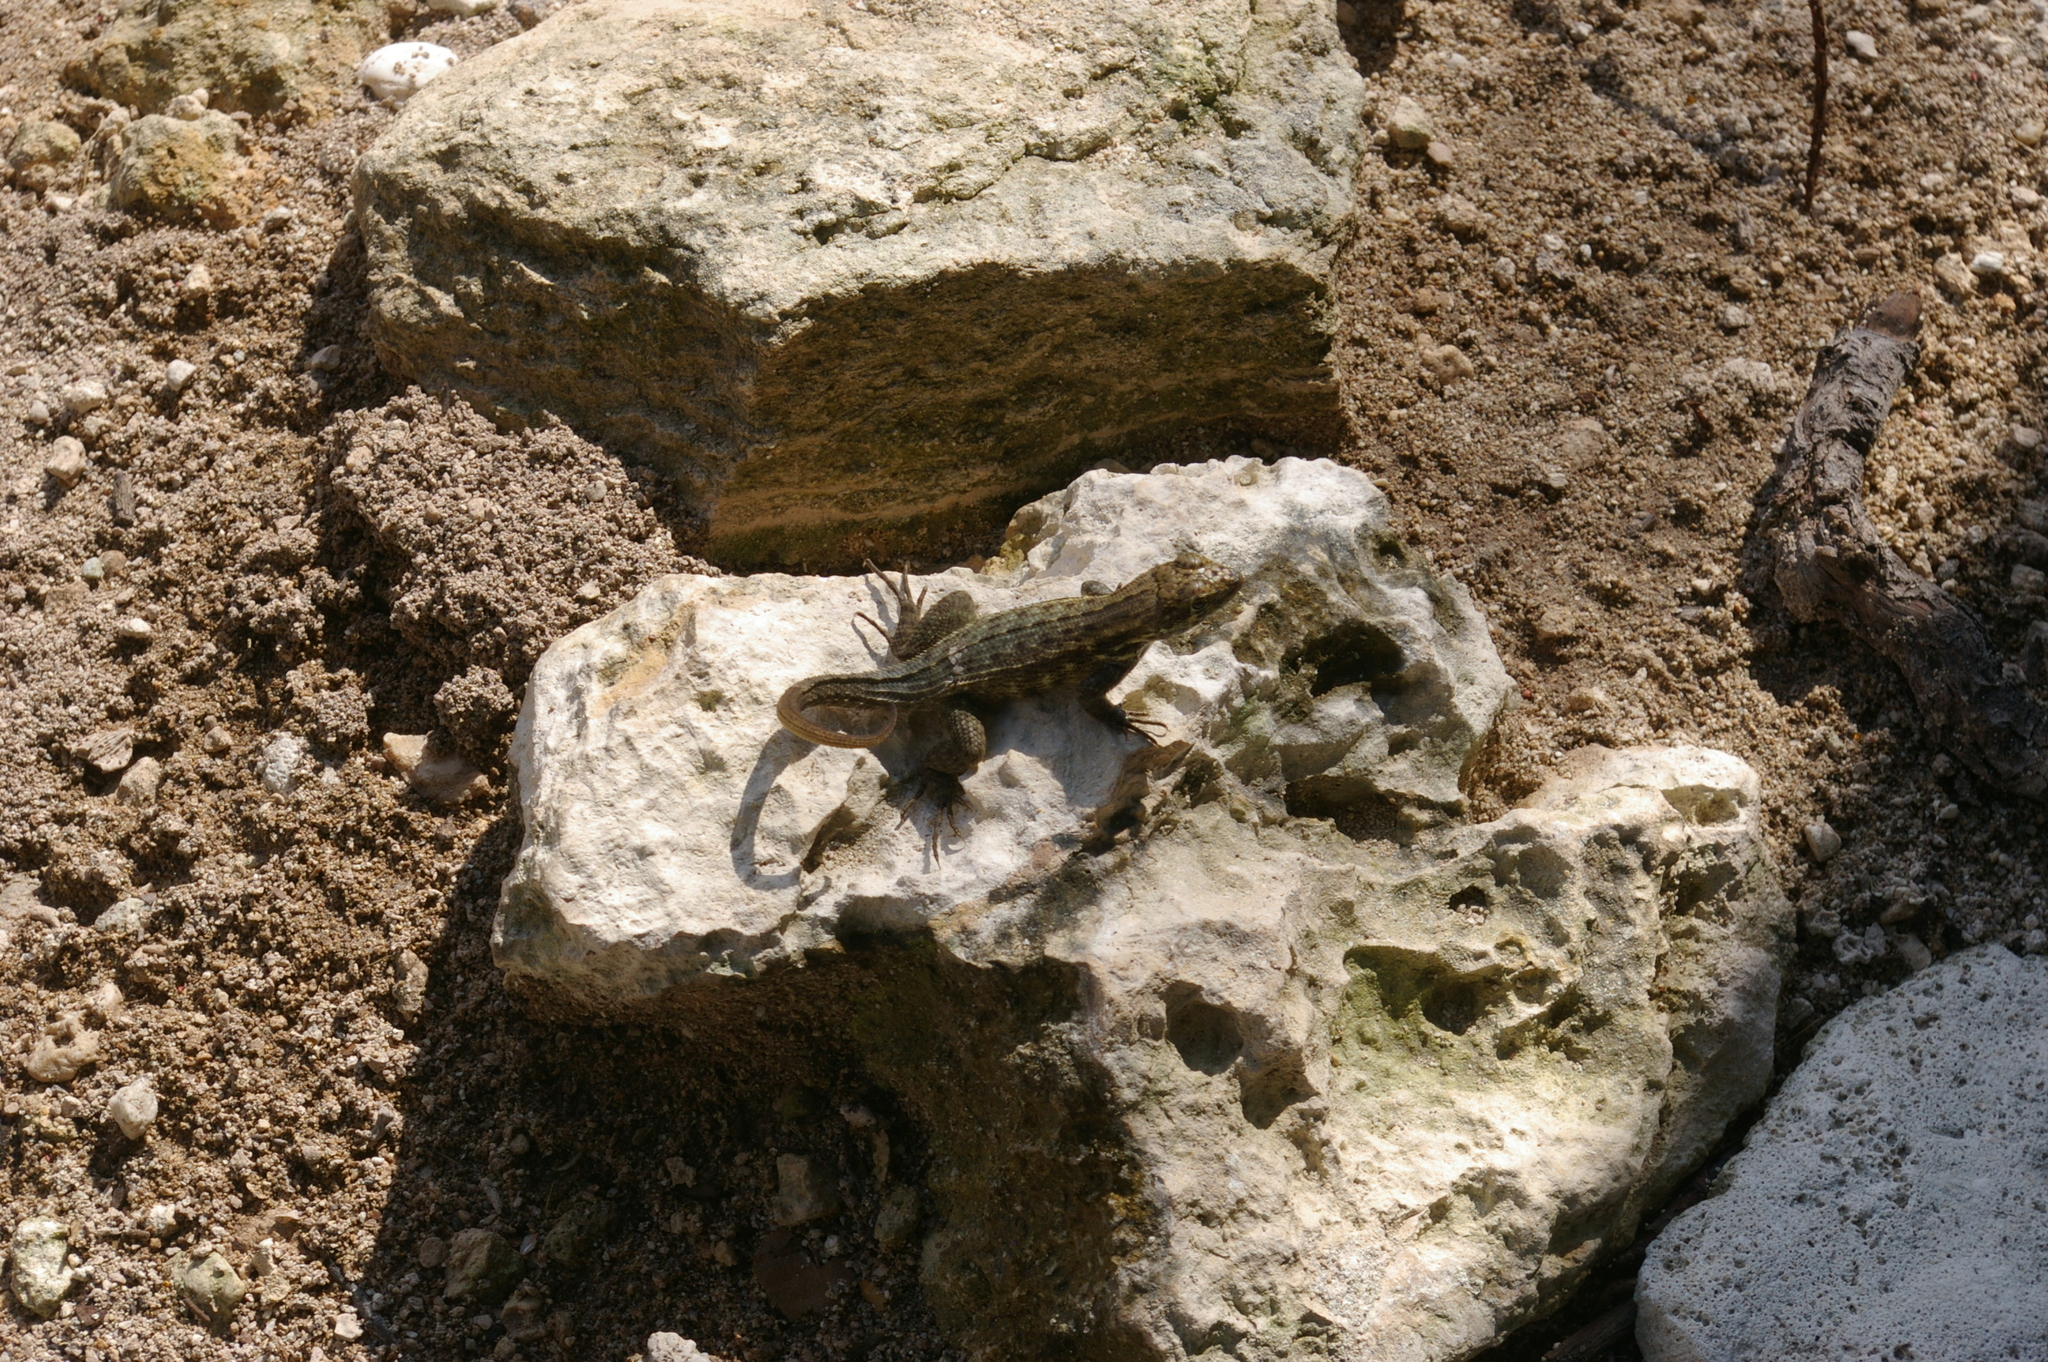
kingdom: Animalia
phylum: Chordata
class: Squamata
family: Leiocephalidae
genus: Leiocephalus
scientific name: Leiocephalus varius
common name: Cayman curlytail
